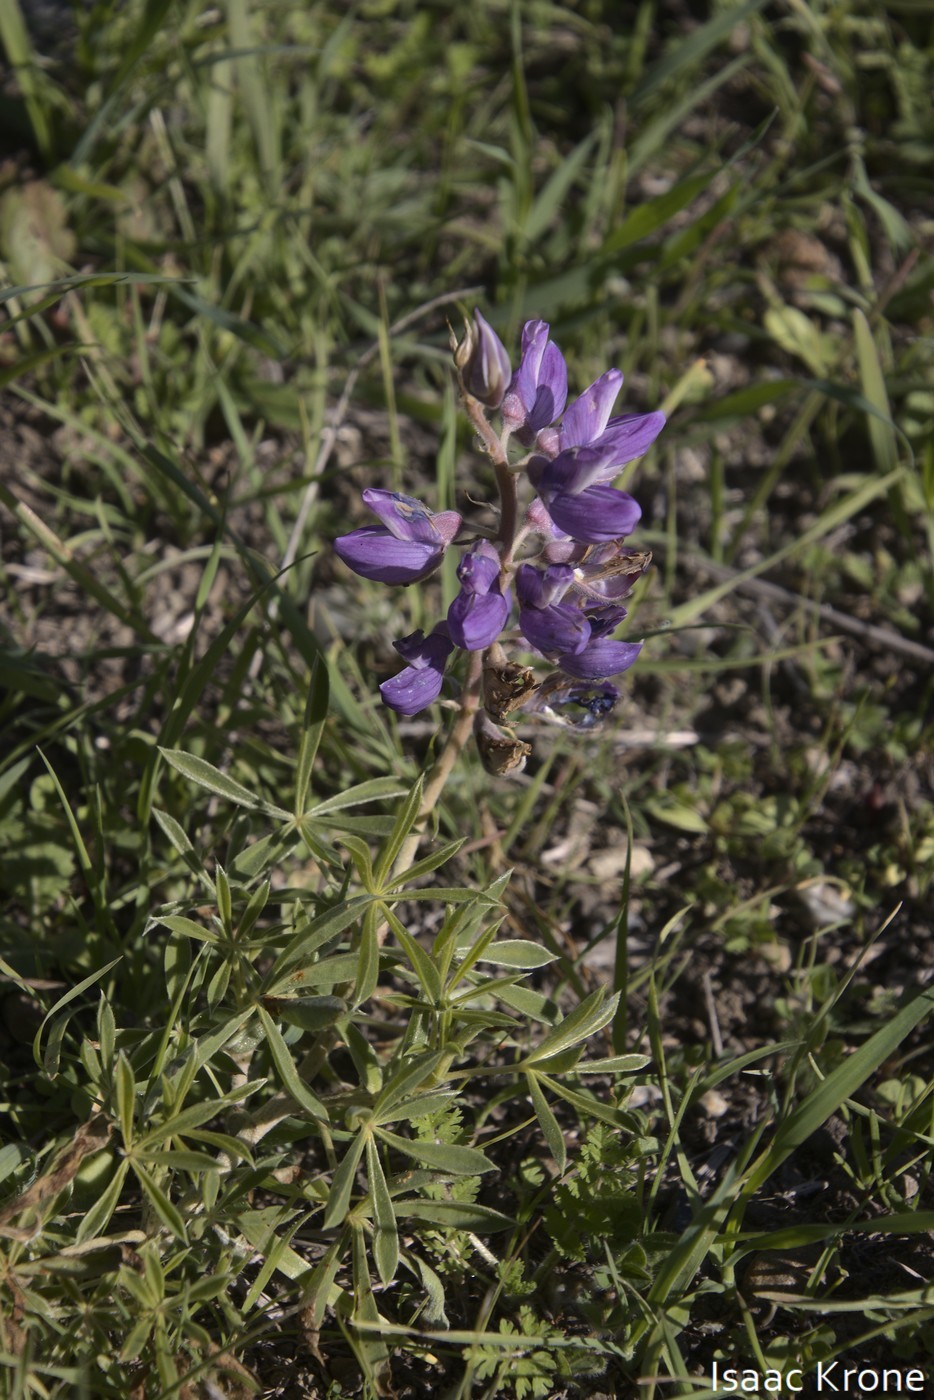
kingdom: Plantae
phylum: Tracheophyta
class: Magnoliopsida
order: Fabales
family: Fabaceae
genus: Lupinus
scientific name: Lupinus formosus
